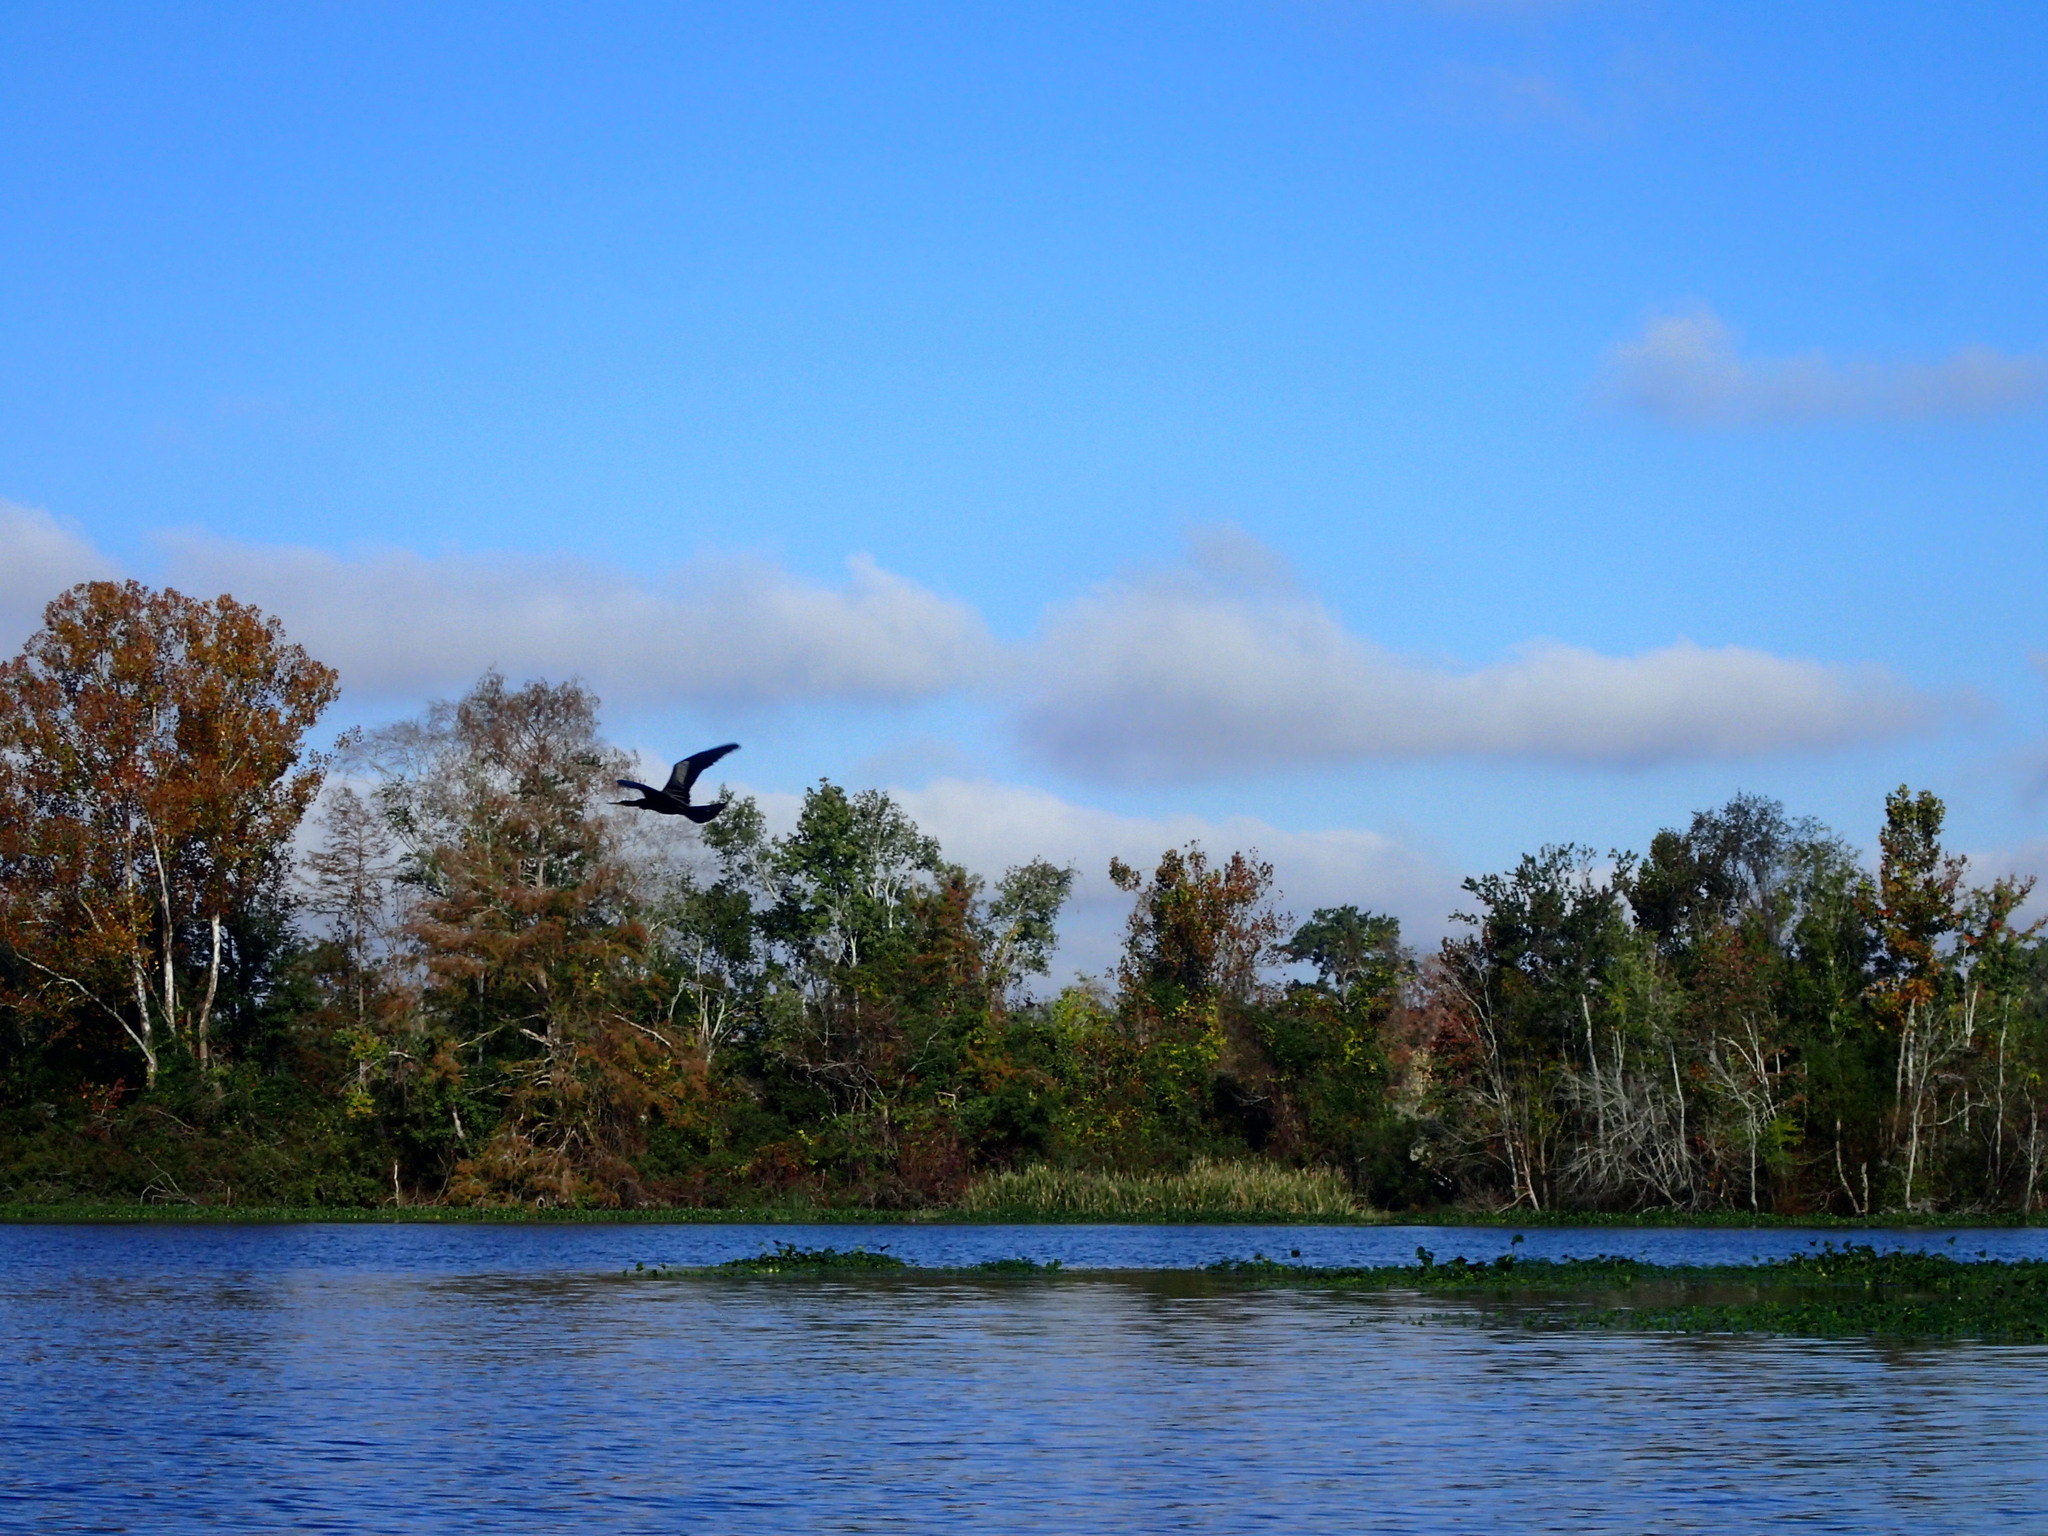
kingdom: Animalia
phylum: Chordata
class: Aves
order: Suliformes
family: Anhingidae
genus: Anhinga
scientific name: Anhinga anhinga
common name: Anhinga
